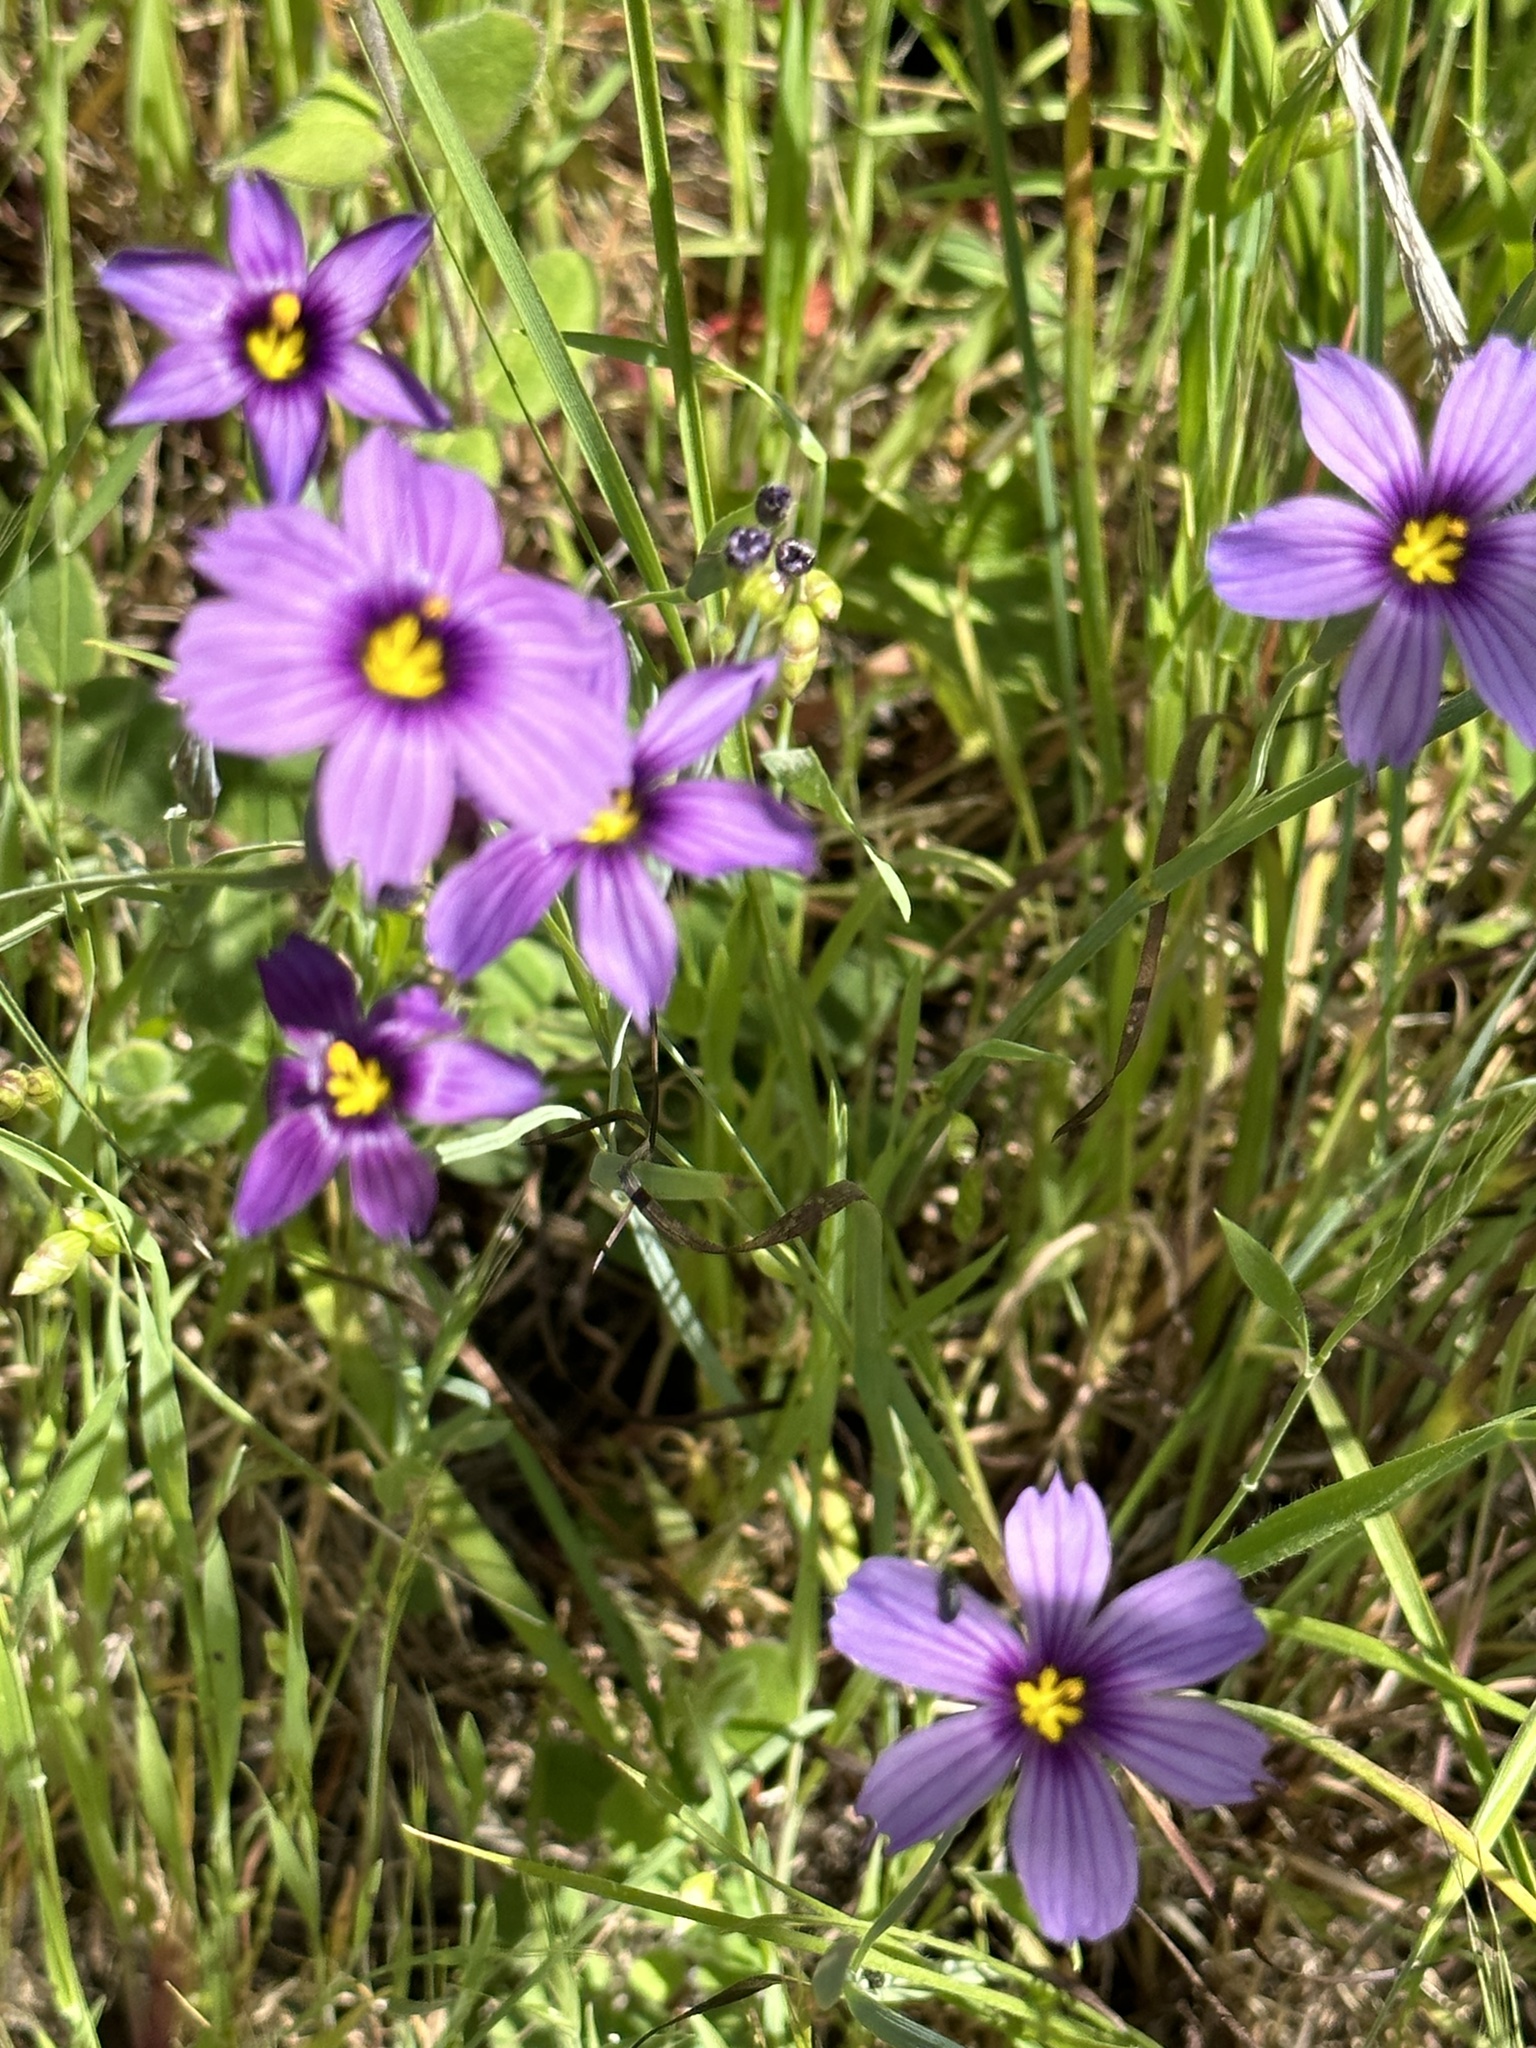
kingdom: Plantae
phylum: Tracheophyta
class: Liliopsida
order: Asparagales
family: Iridaceae
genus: Sisyrinchium
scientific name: Sisyrinchium bellum
